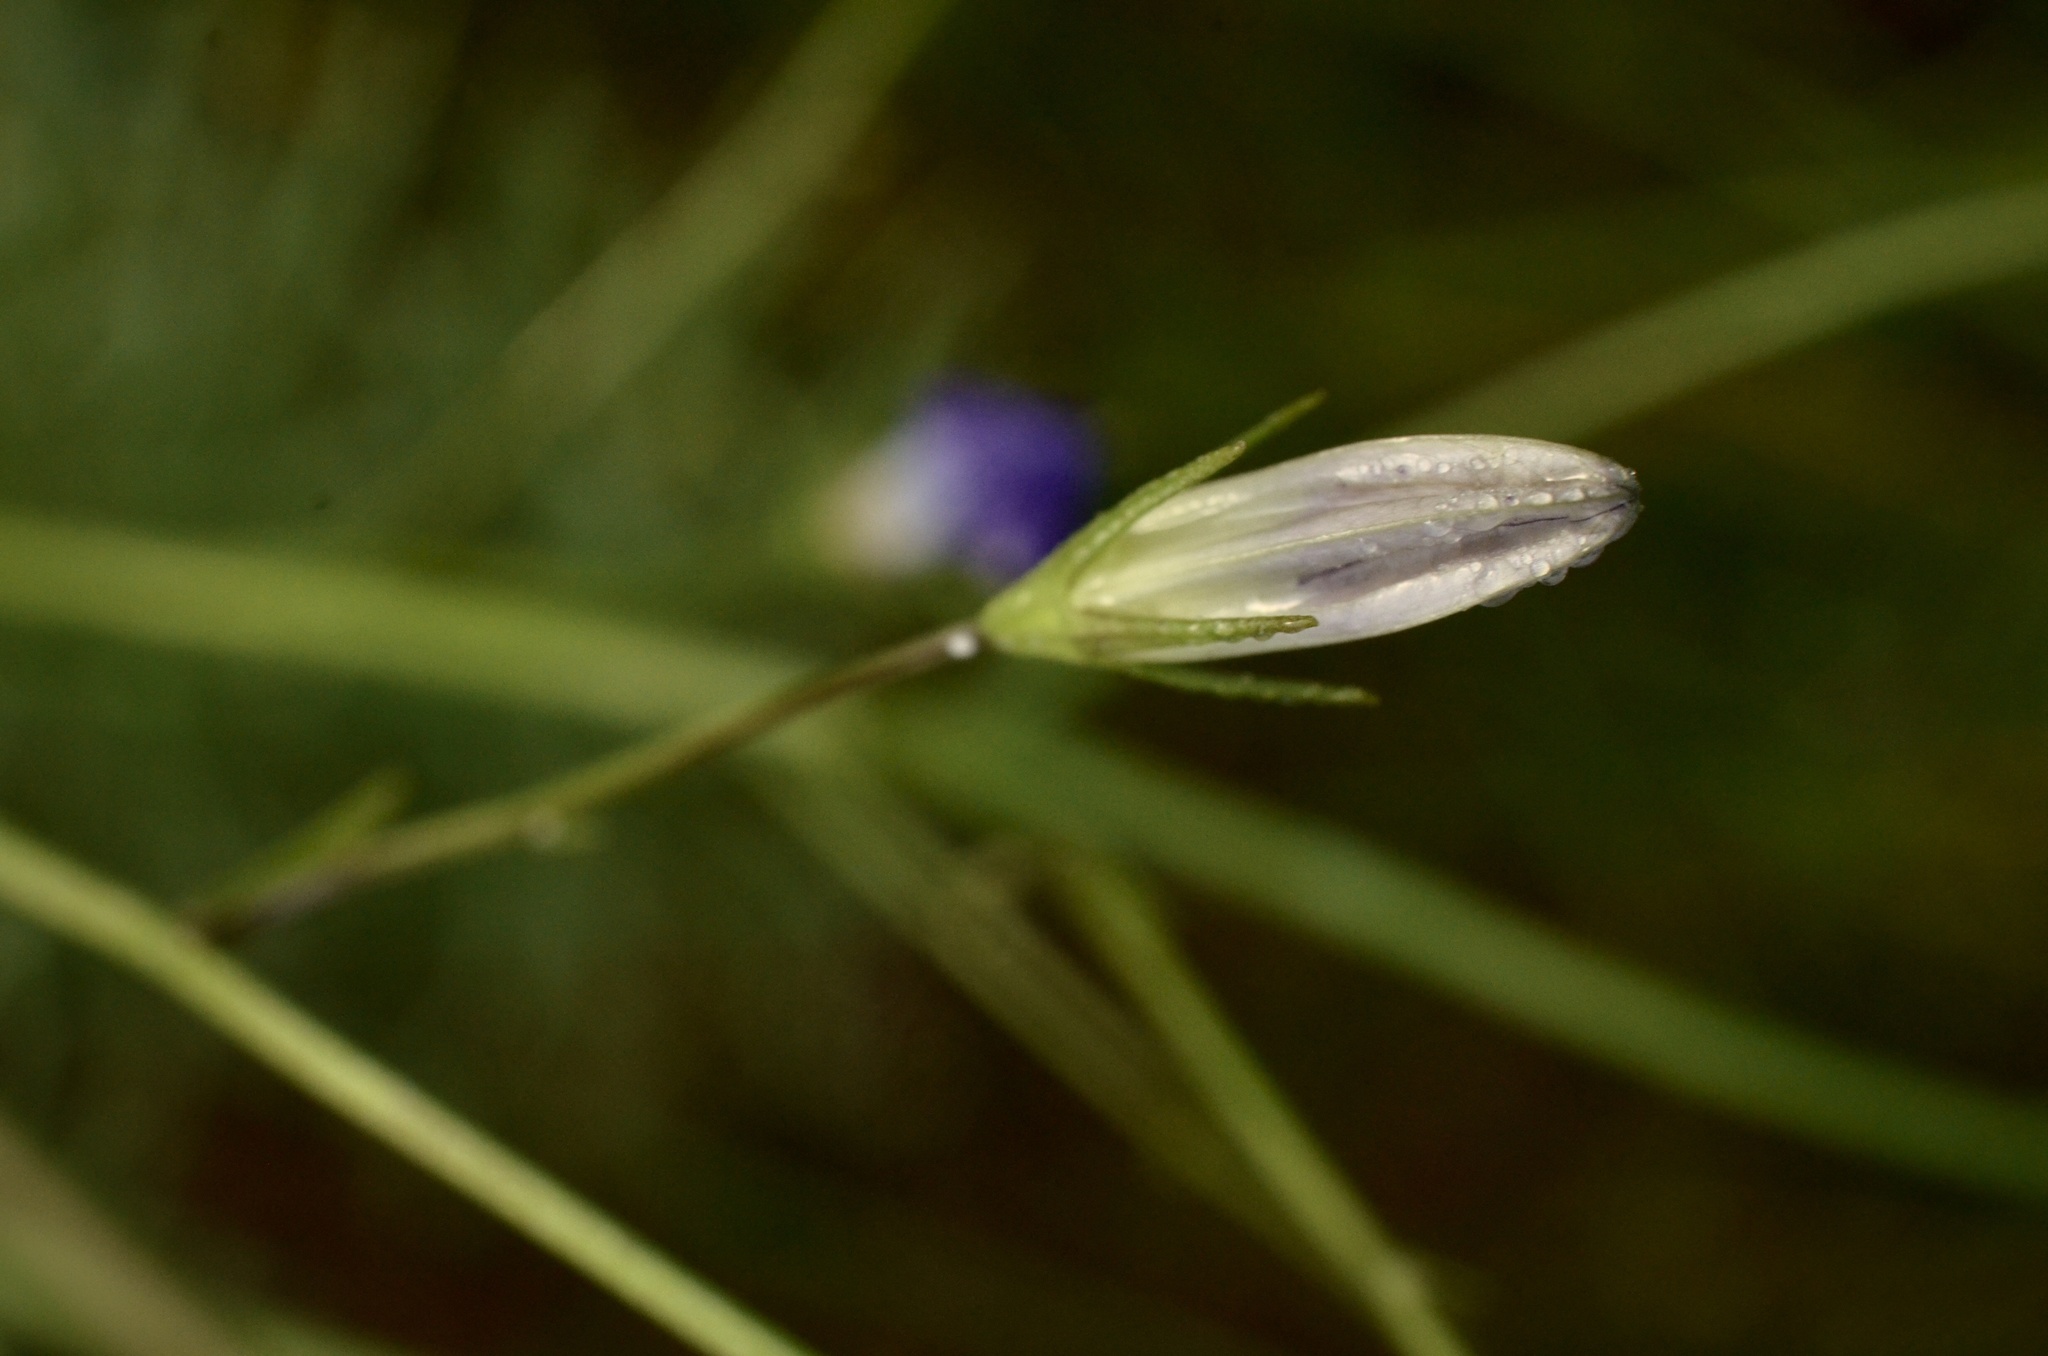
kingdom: Plantae
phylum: Tracheophyta
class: Magnoliopsida
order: Asterales
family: Campanulaceae
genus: Campanula
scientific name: Campanula patula
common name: Spreading bellflower
